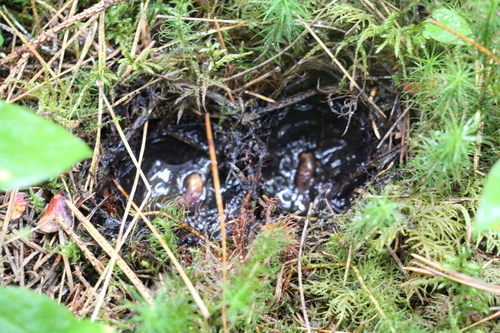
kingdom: Fungi
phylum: Ascomycota
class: Pezizomycetes
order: Pezizales
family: Sarcosomataceae
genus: Sarcosoma
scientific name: Sarcosoma globosum
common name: Charred-pancake cup
